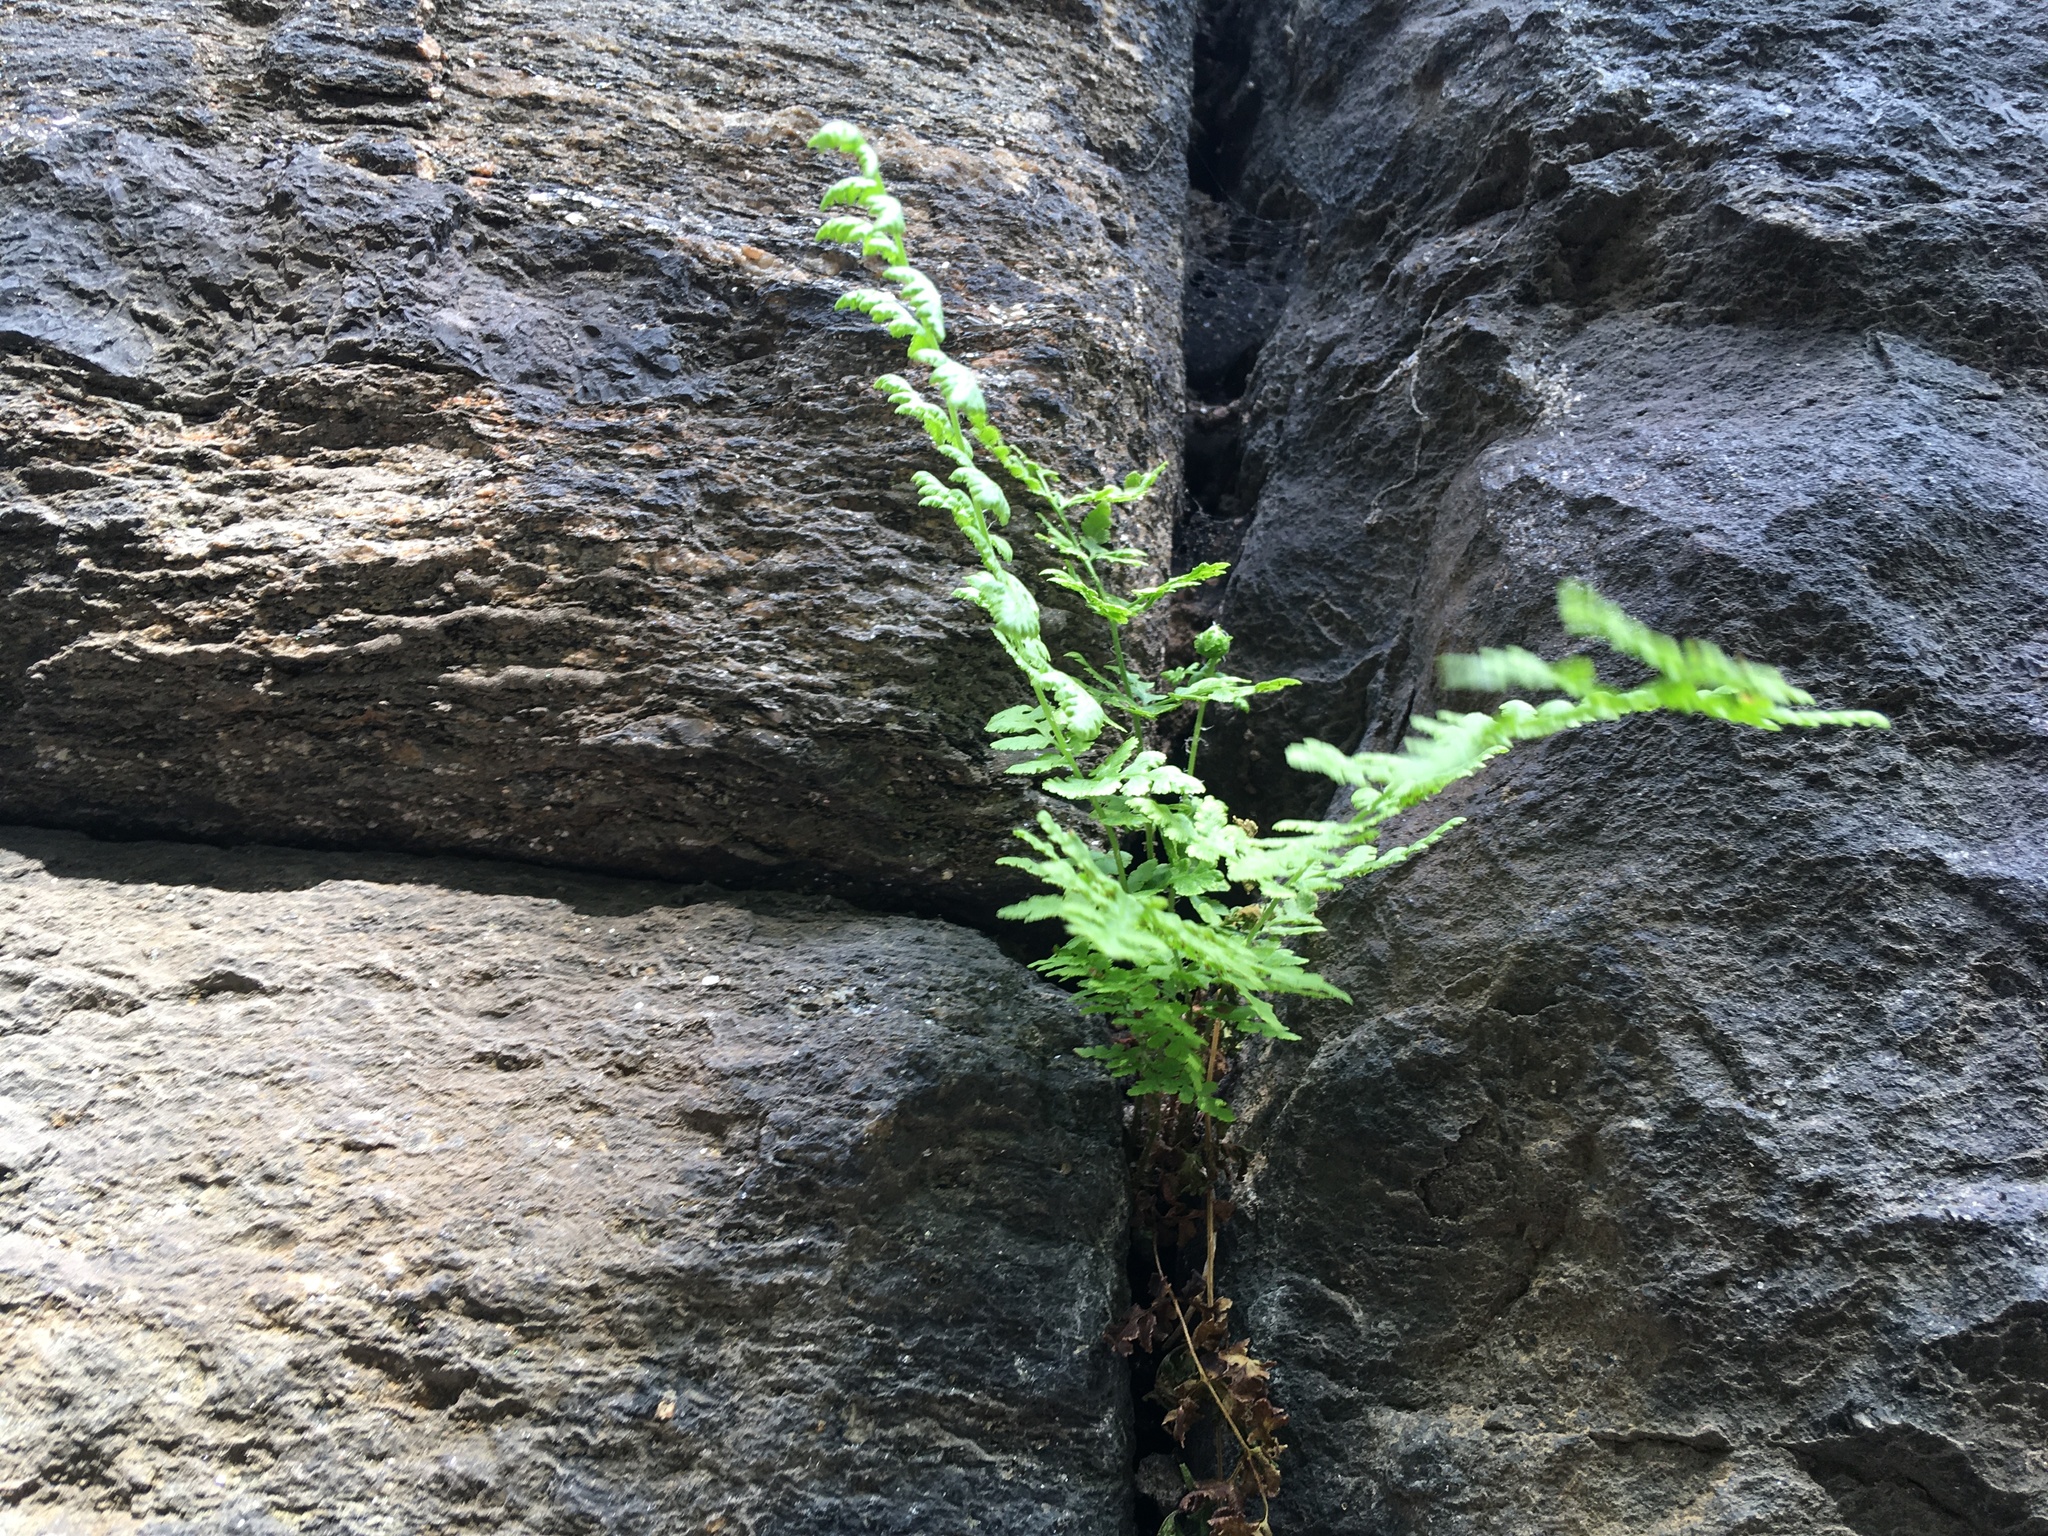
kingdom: Plantae
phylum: Tracheophyta
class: Polypodiopsida
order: Polypodiales
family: Woodsiaceae
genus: Physematium
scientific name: Physematium obtusum
